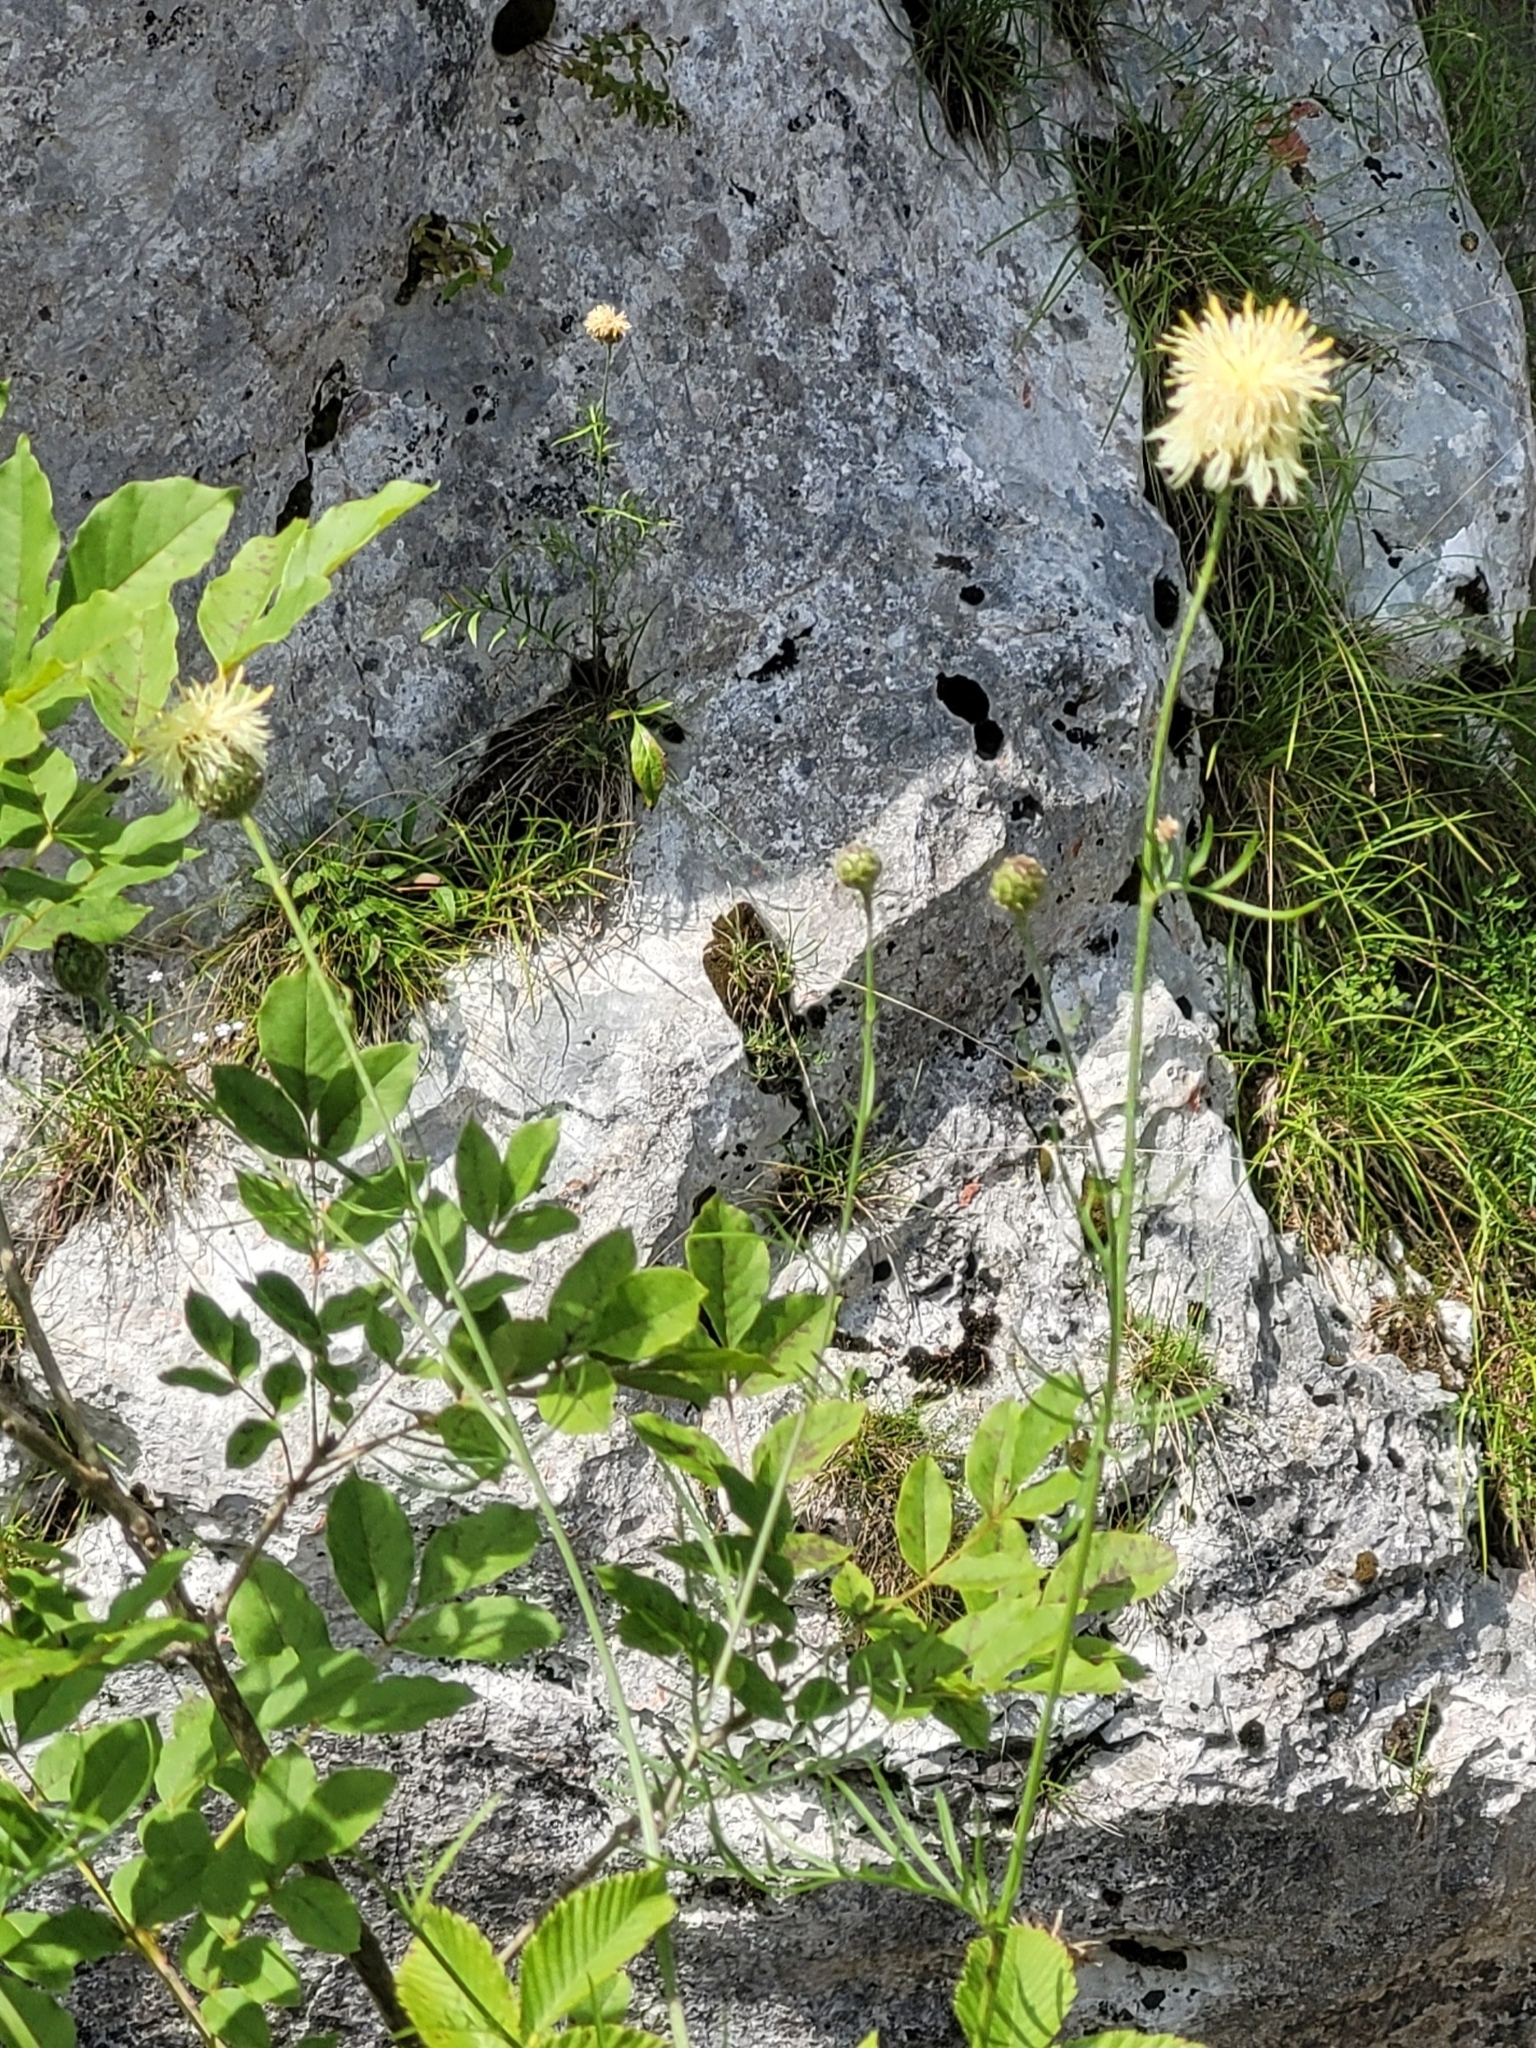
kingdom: Plantae
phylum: Tracheophyta
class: Magnoliopsida
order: Asterales
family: Asteraceae
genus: Centaurea
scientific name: Centaurea dichroantha
